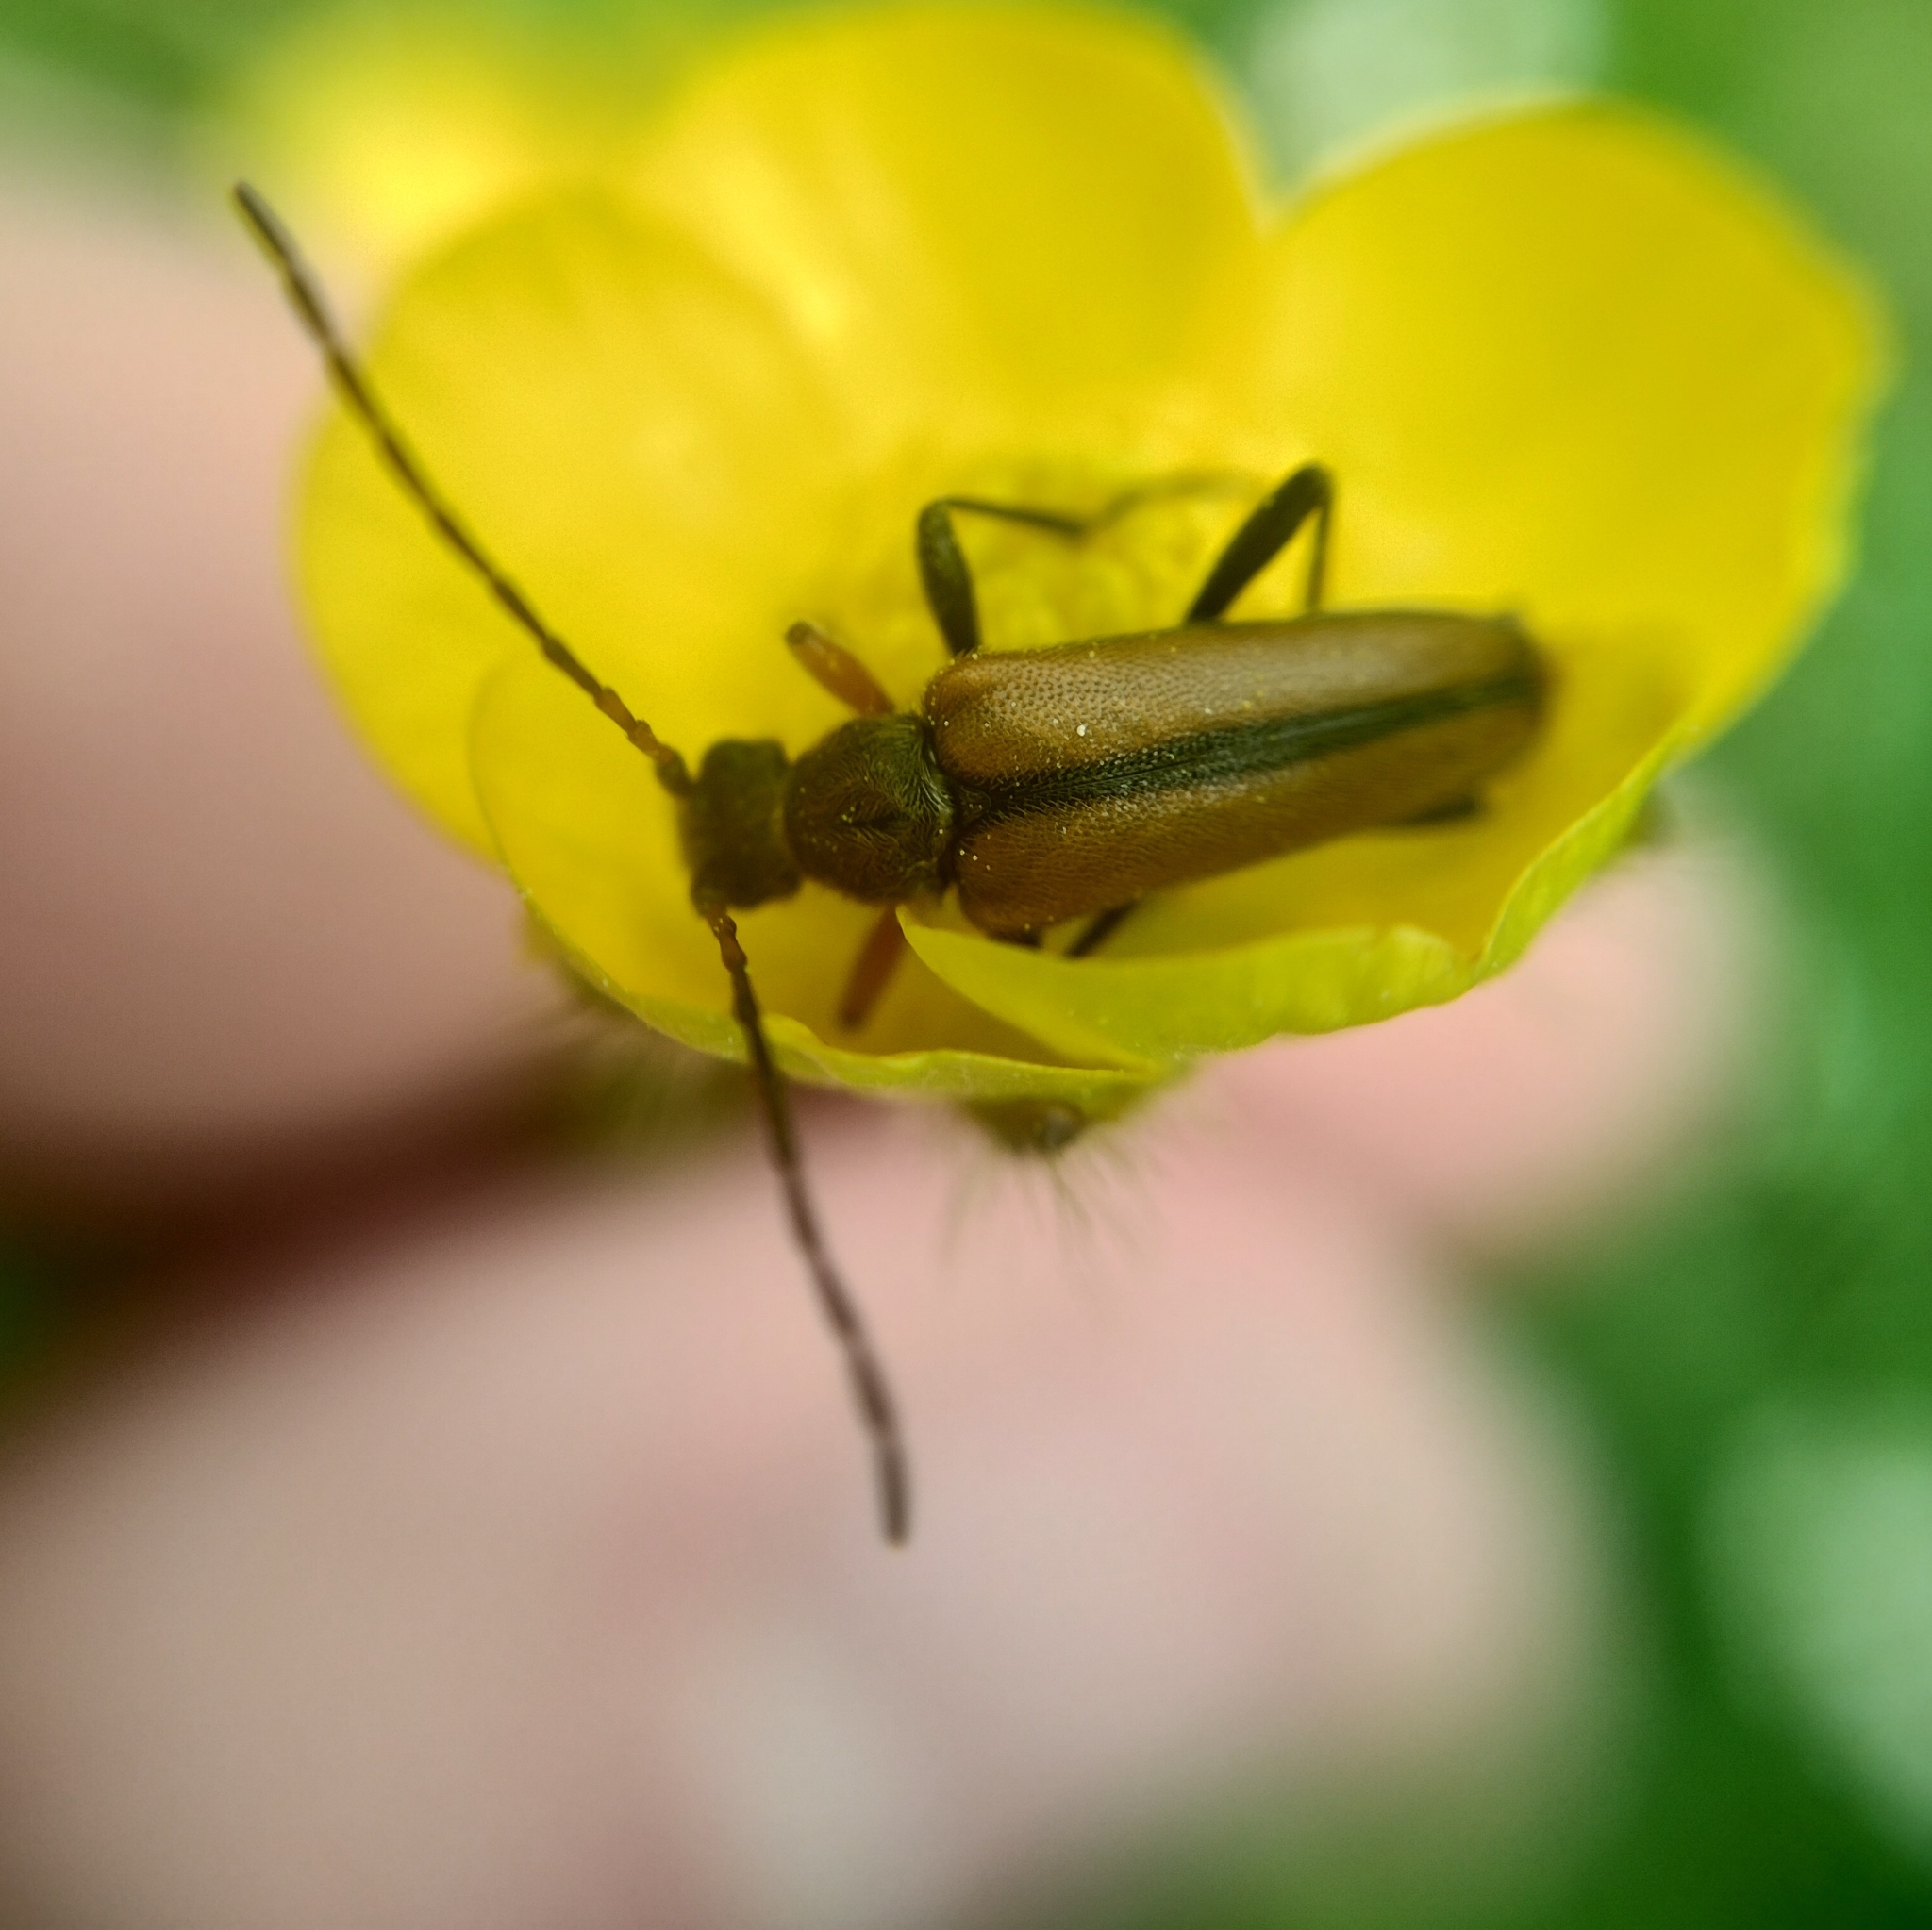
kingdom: Animalia
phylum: Arthropoda
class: Insecta
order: Coleoptera
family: Cerambycidae
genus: Cortodera
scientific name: Cortodera flavimana
